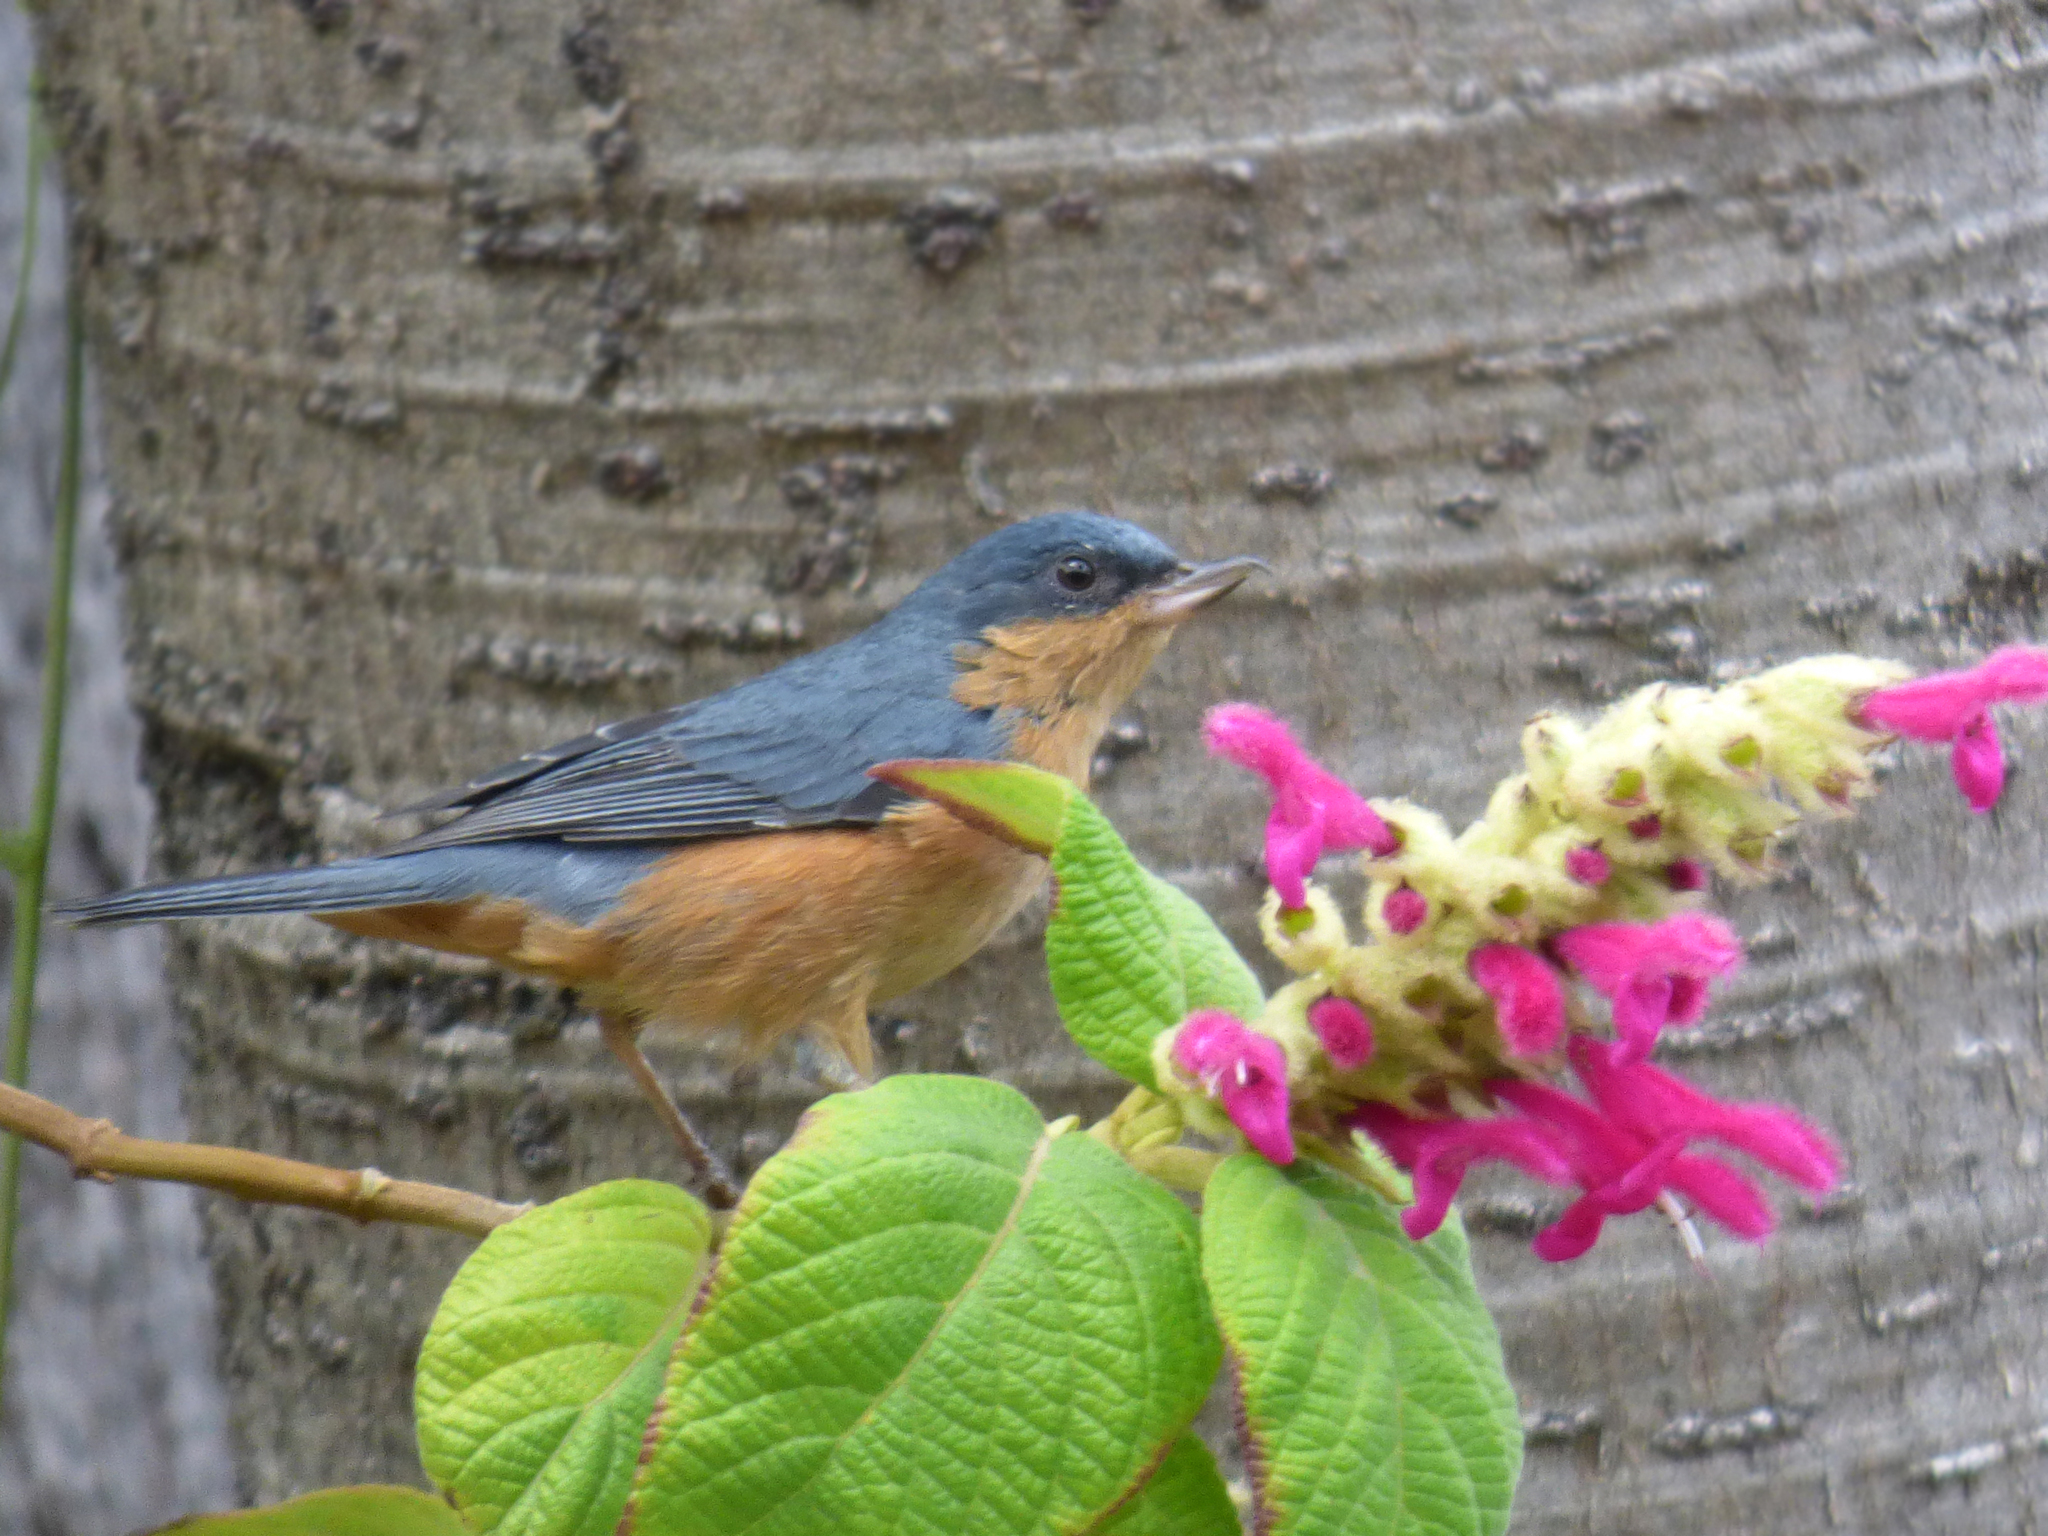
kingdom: Animalia
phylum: Chordata
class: Aves
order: Passeriformes
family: Thraupidae
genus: Diglossa
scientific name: Diglossa sittoides
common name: Rusty flowerpiercer
